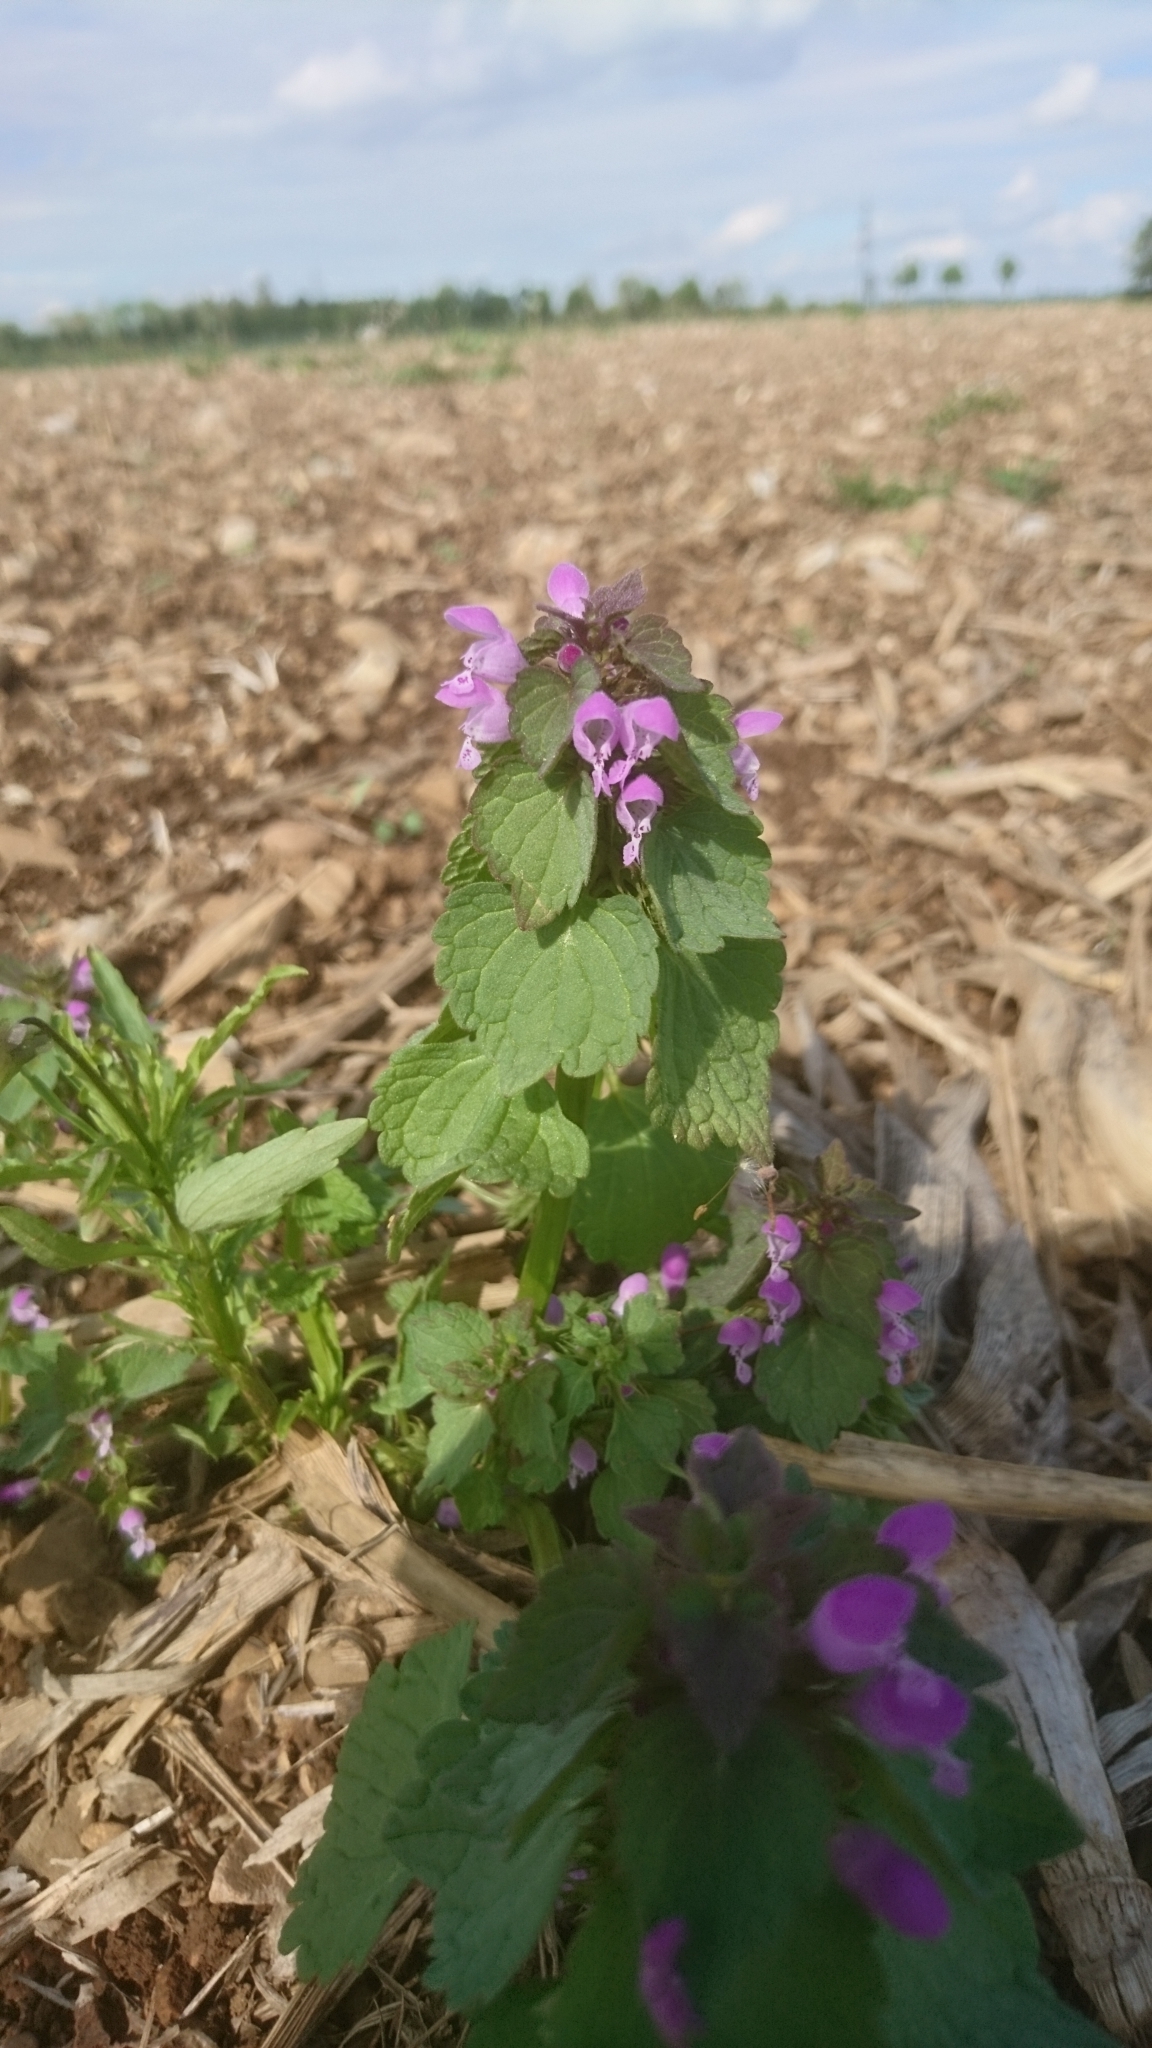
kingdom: Plantae
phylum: Tracheophyta
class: Magnoliopsida
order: Lamiales
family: Lamiaceae
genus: Lamium
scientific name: Lamium purpureum
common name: Red dead-nettle
